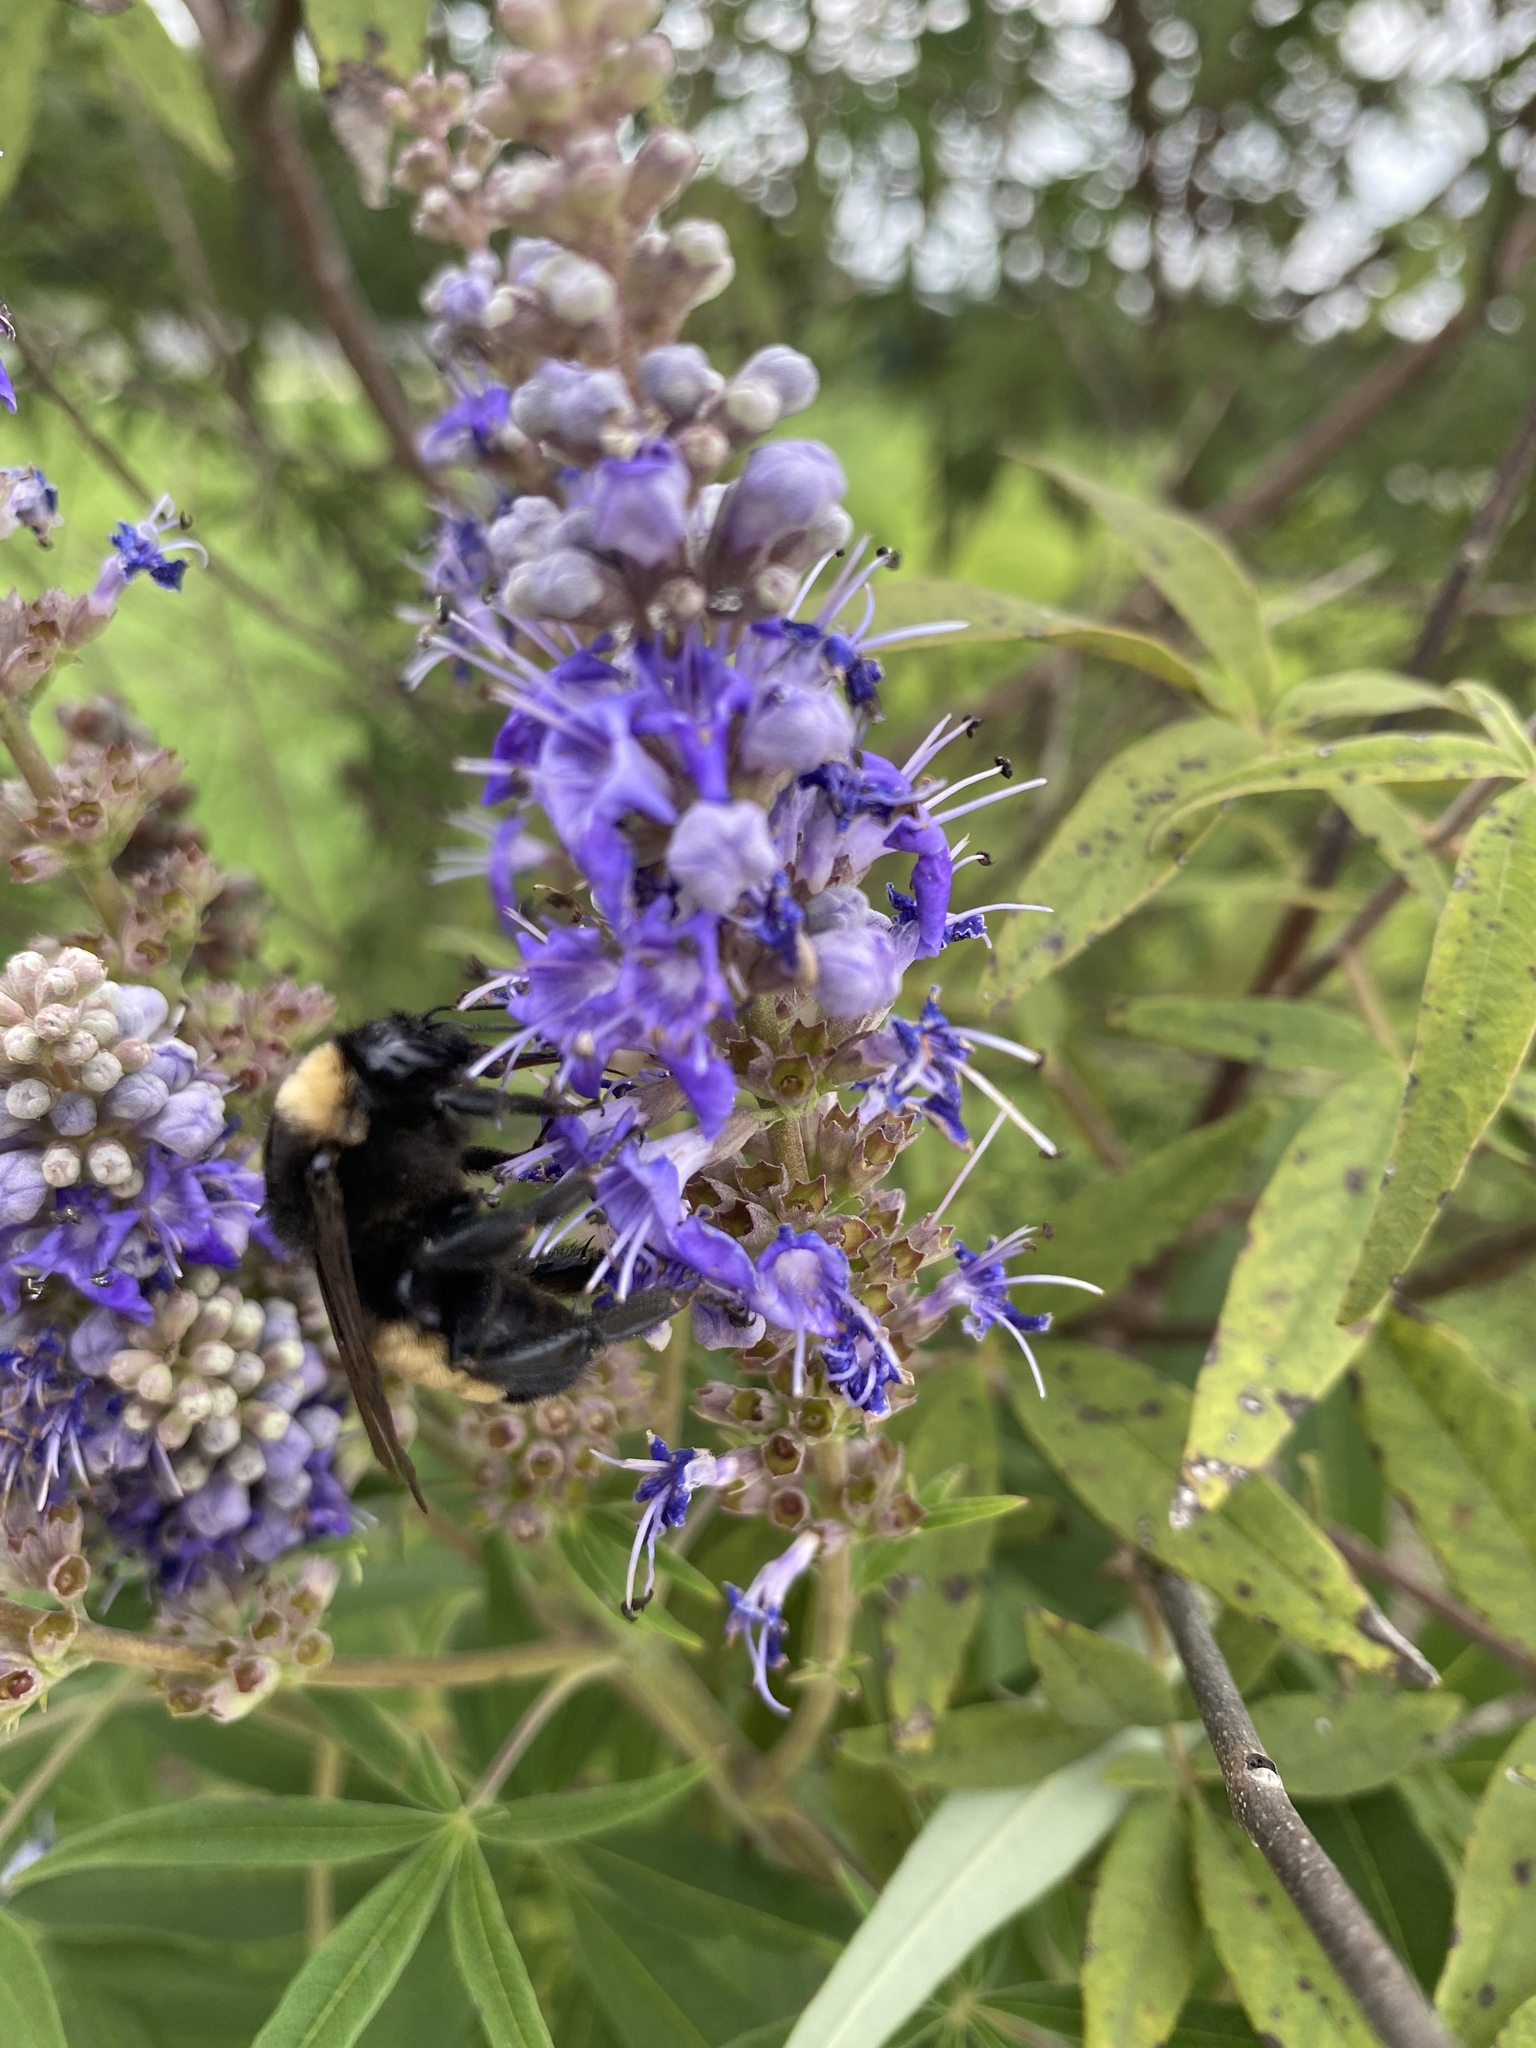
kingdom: Animalia
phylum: Arthropoda
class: Insecta
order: Hymenoptera
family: Apidae
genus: Bombus
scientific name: Bombus pensylvanicus
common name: Bumble bee
